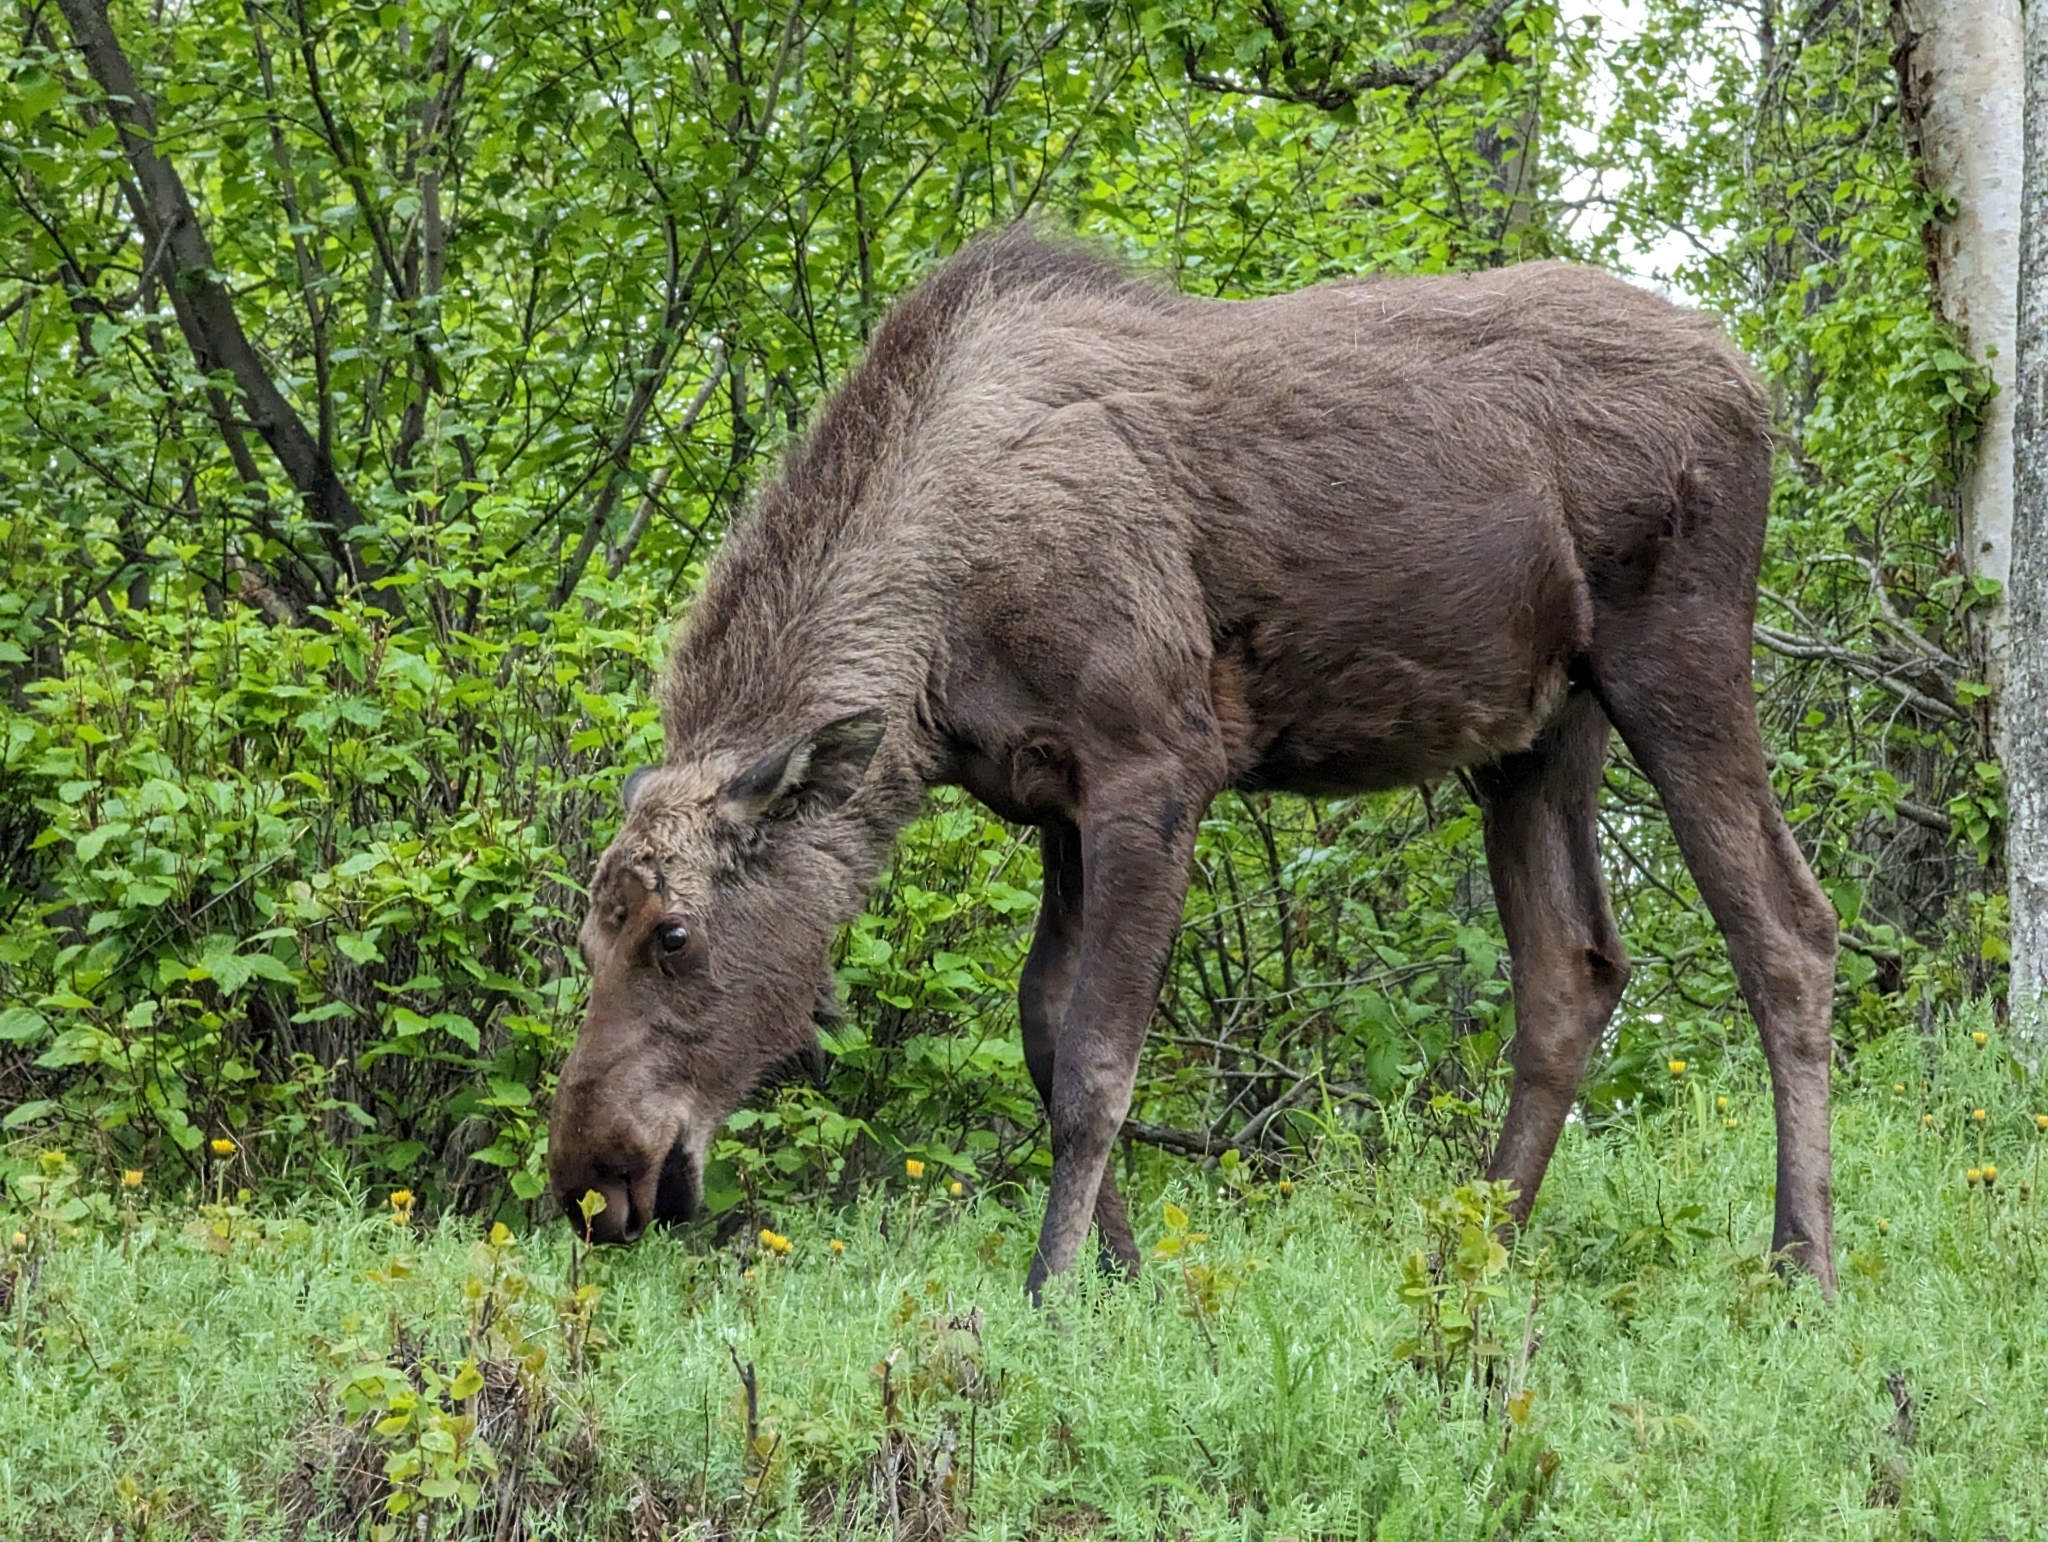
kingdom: Animalia
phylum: Chordata
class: Mammalia
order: Artiodactyla
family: Cervidae
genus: Alces
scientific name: Alces alces
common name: Moose
